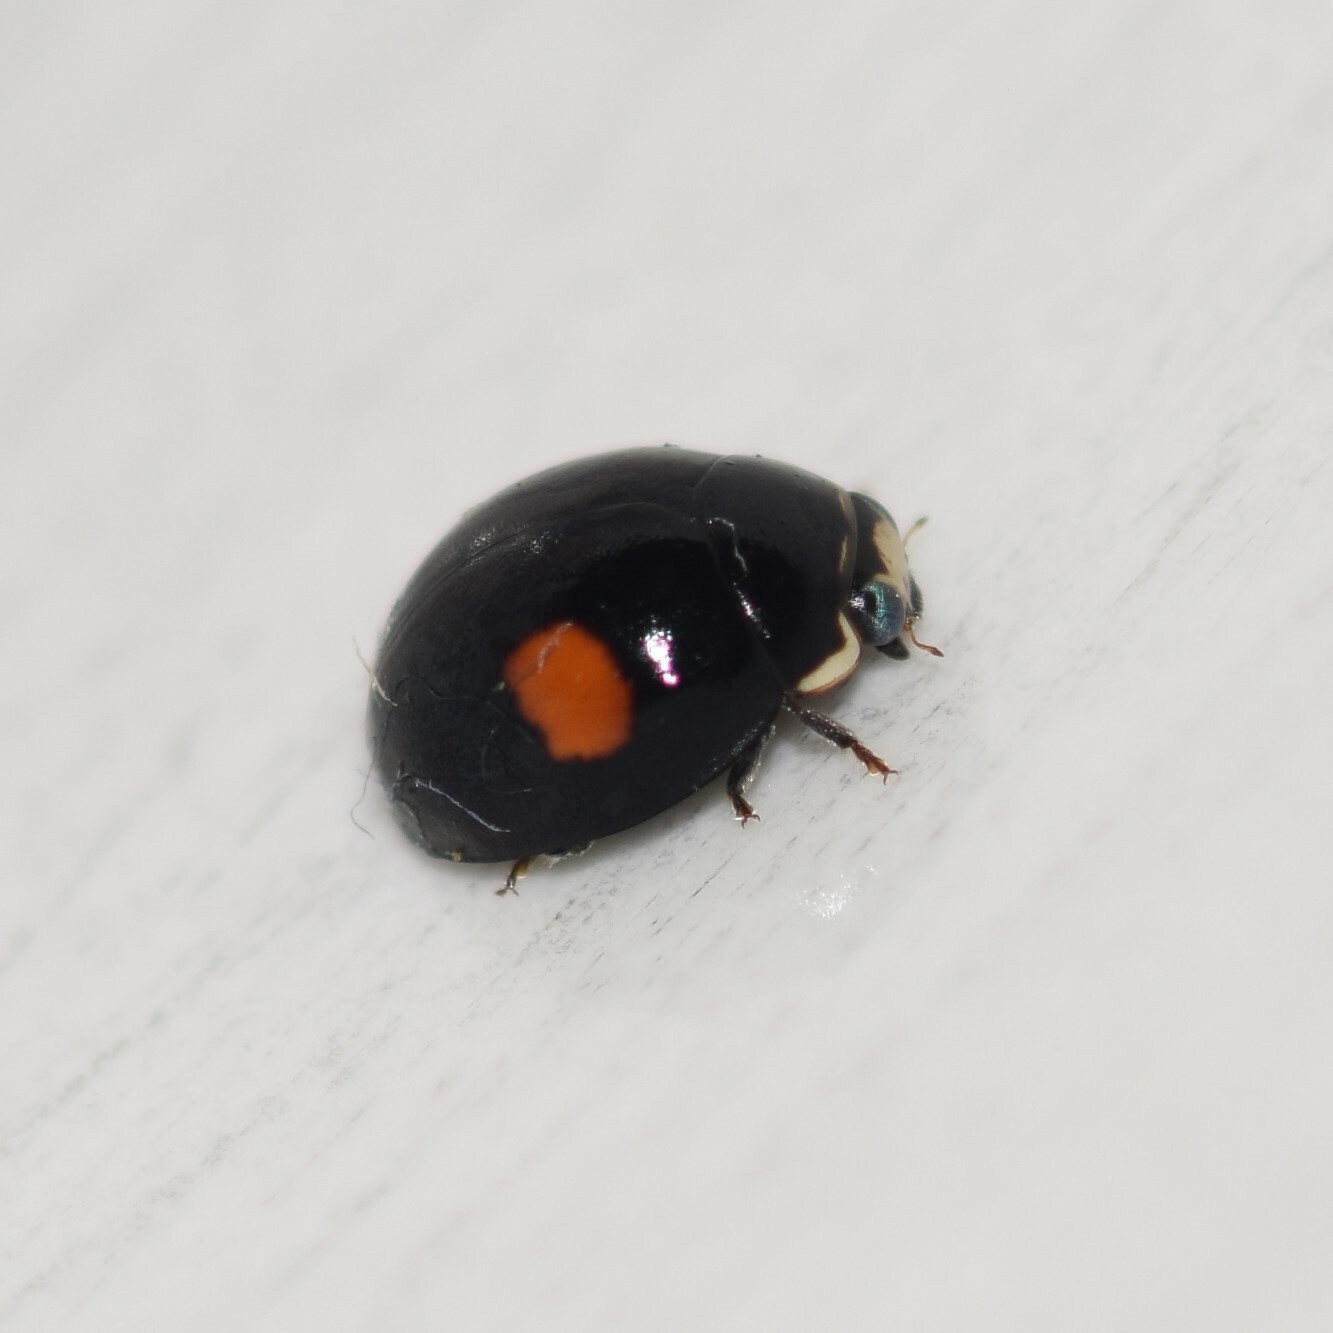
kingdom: Animalia
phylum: Arthropoda
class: Insecta
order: Coleoptera
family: Coccinellidae
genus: Olla
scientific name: Olla v-nigrum
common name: Ashy gray lady beetle
